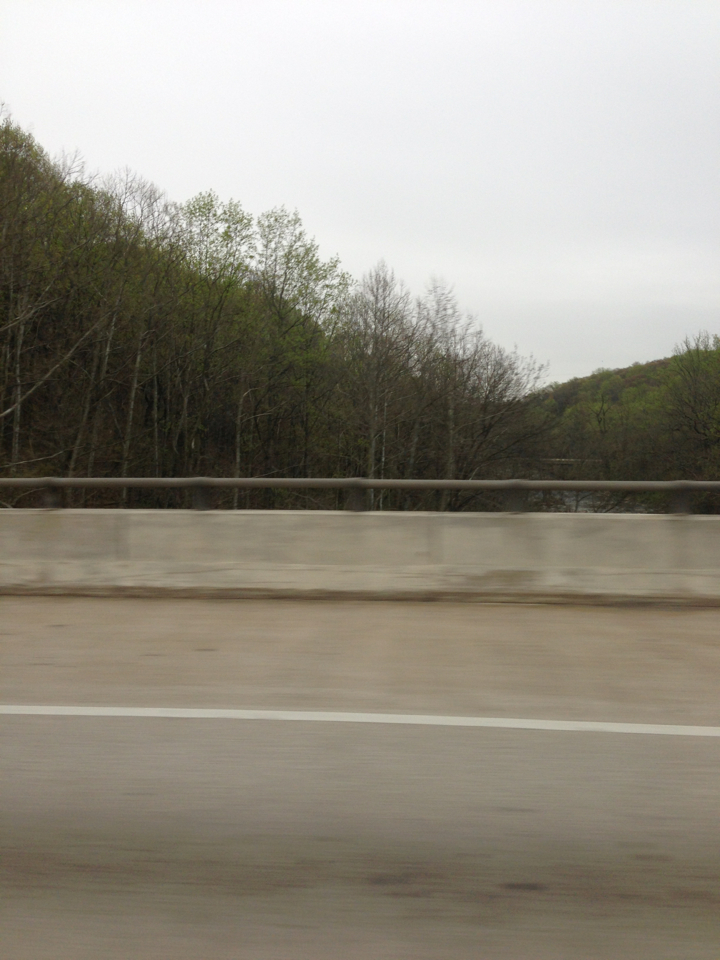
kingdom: Plantae
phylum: Tracheophyta
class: Magnoliopsida
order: Proteales
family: Platanaceae
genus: Platanus
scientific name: Platanus occidentalis
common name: American sycamore
